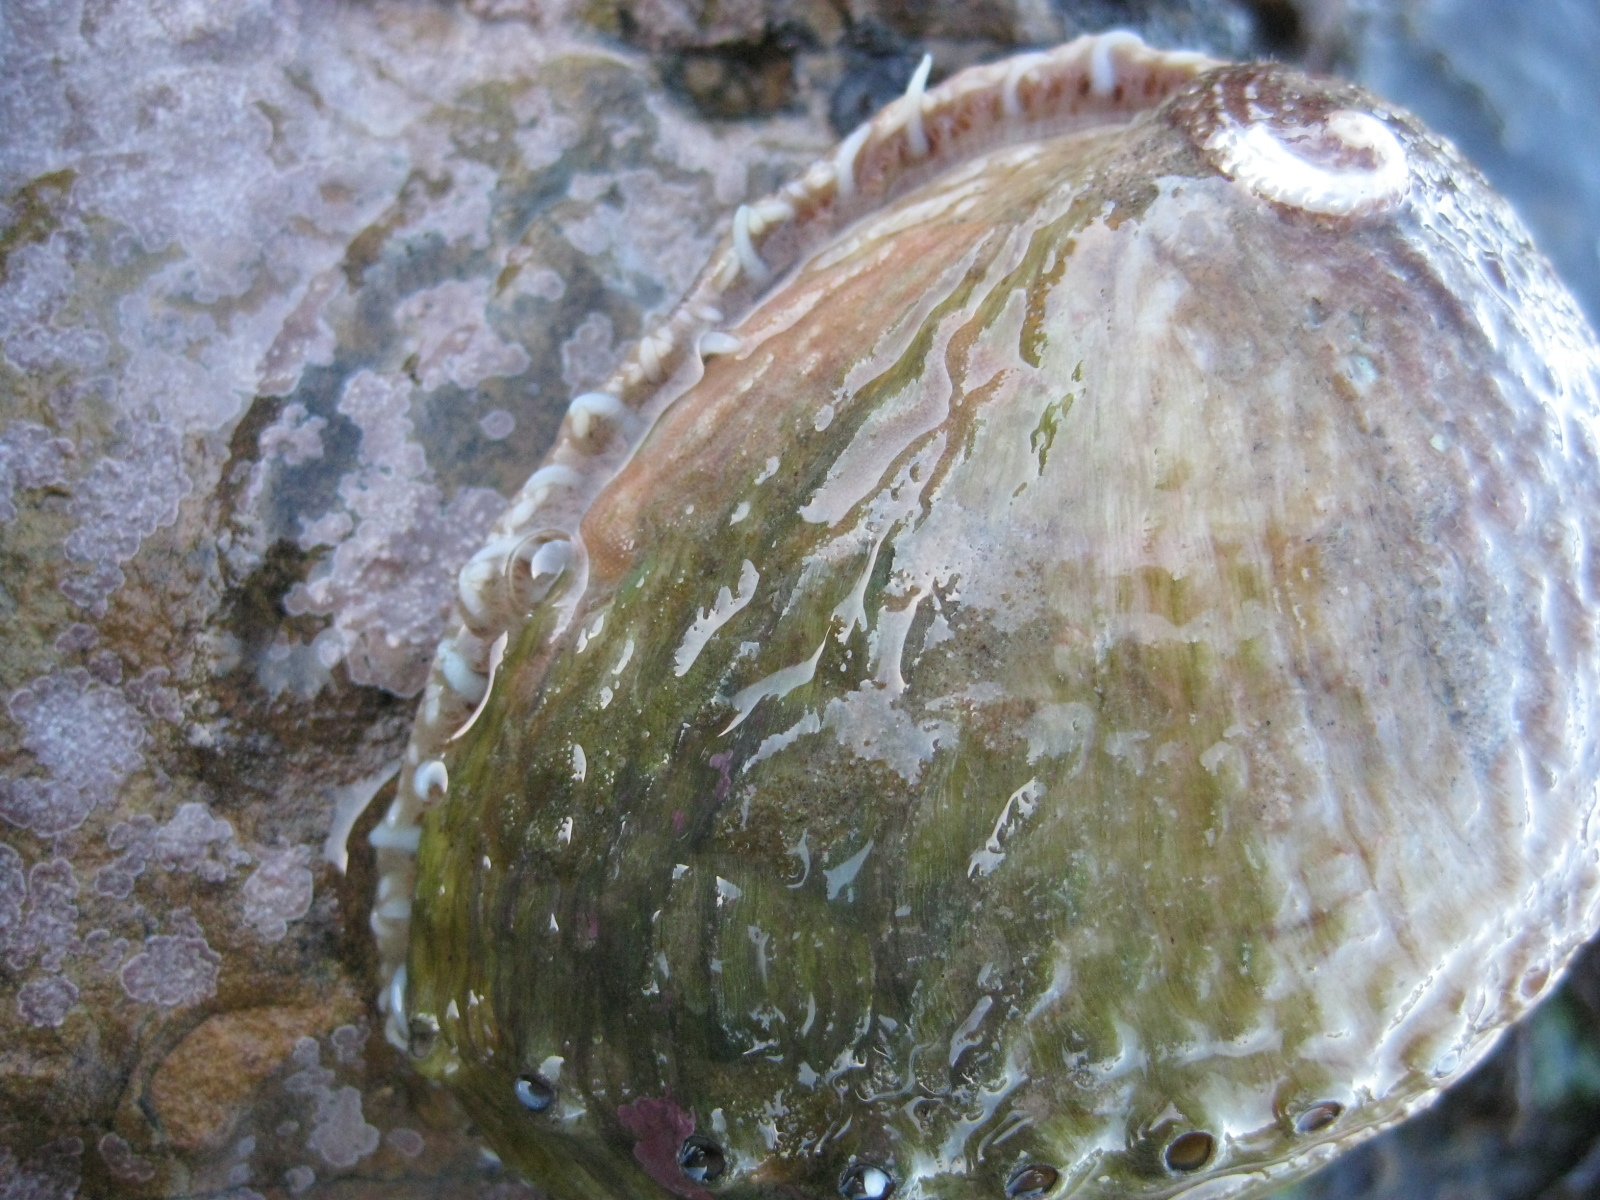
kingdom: Animalia
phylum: Mollusca
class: Gastropoda
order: Lepetellida
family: Haliotidae
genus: Haliotis
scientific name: Haliotis australis
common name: Silver abalone
